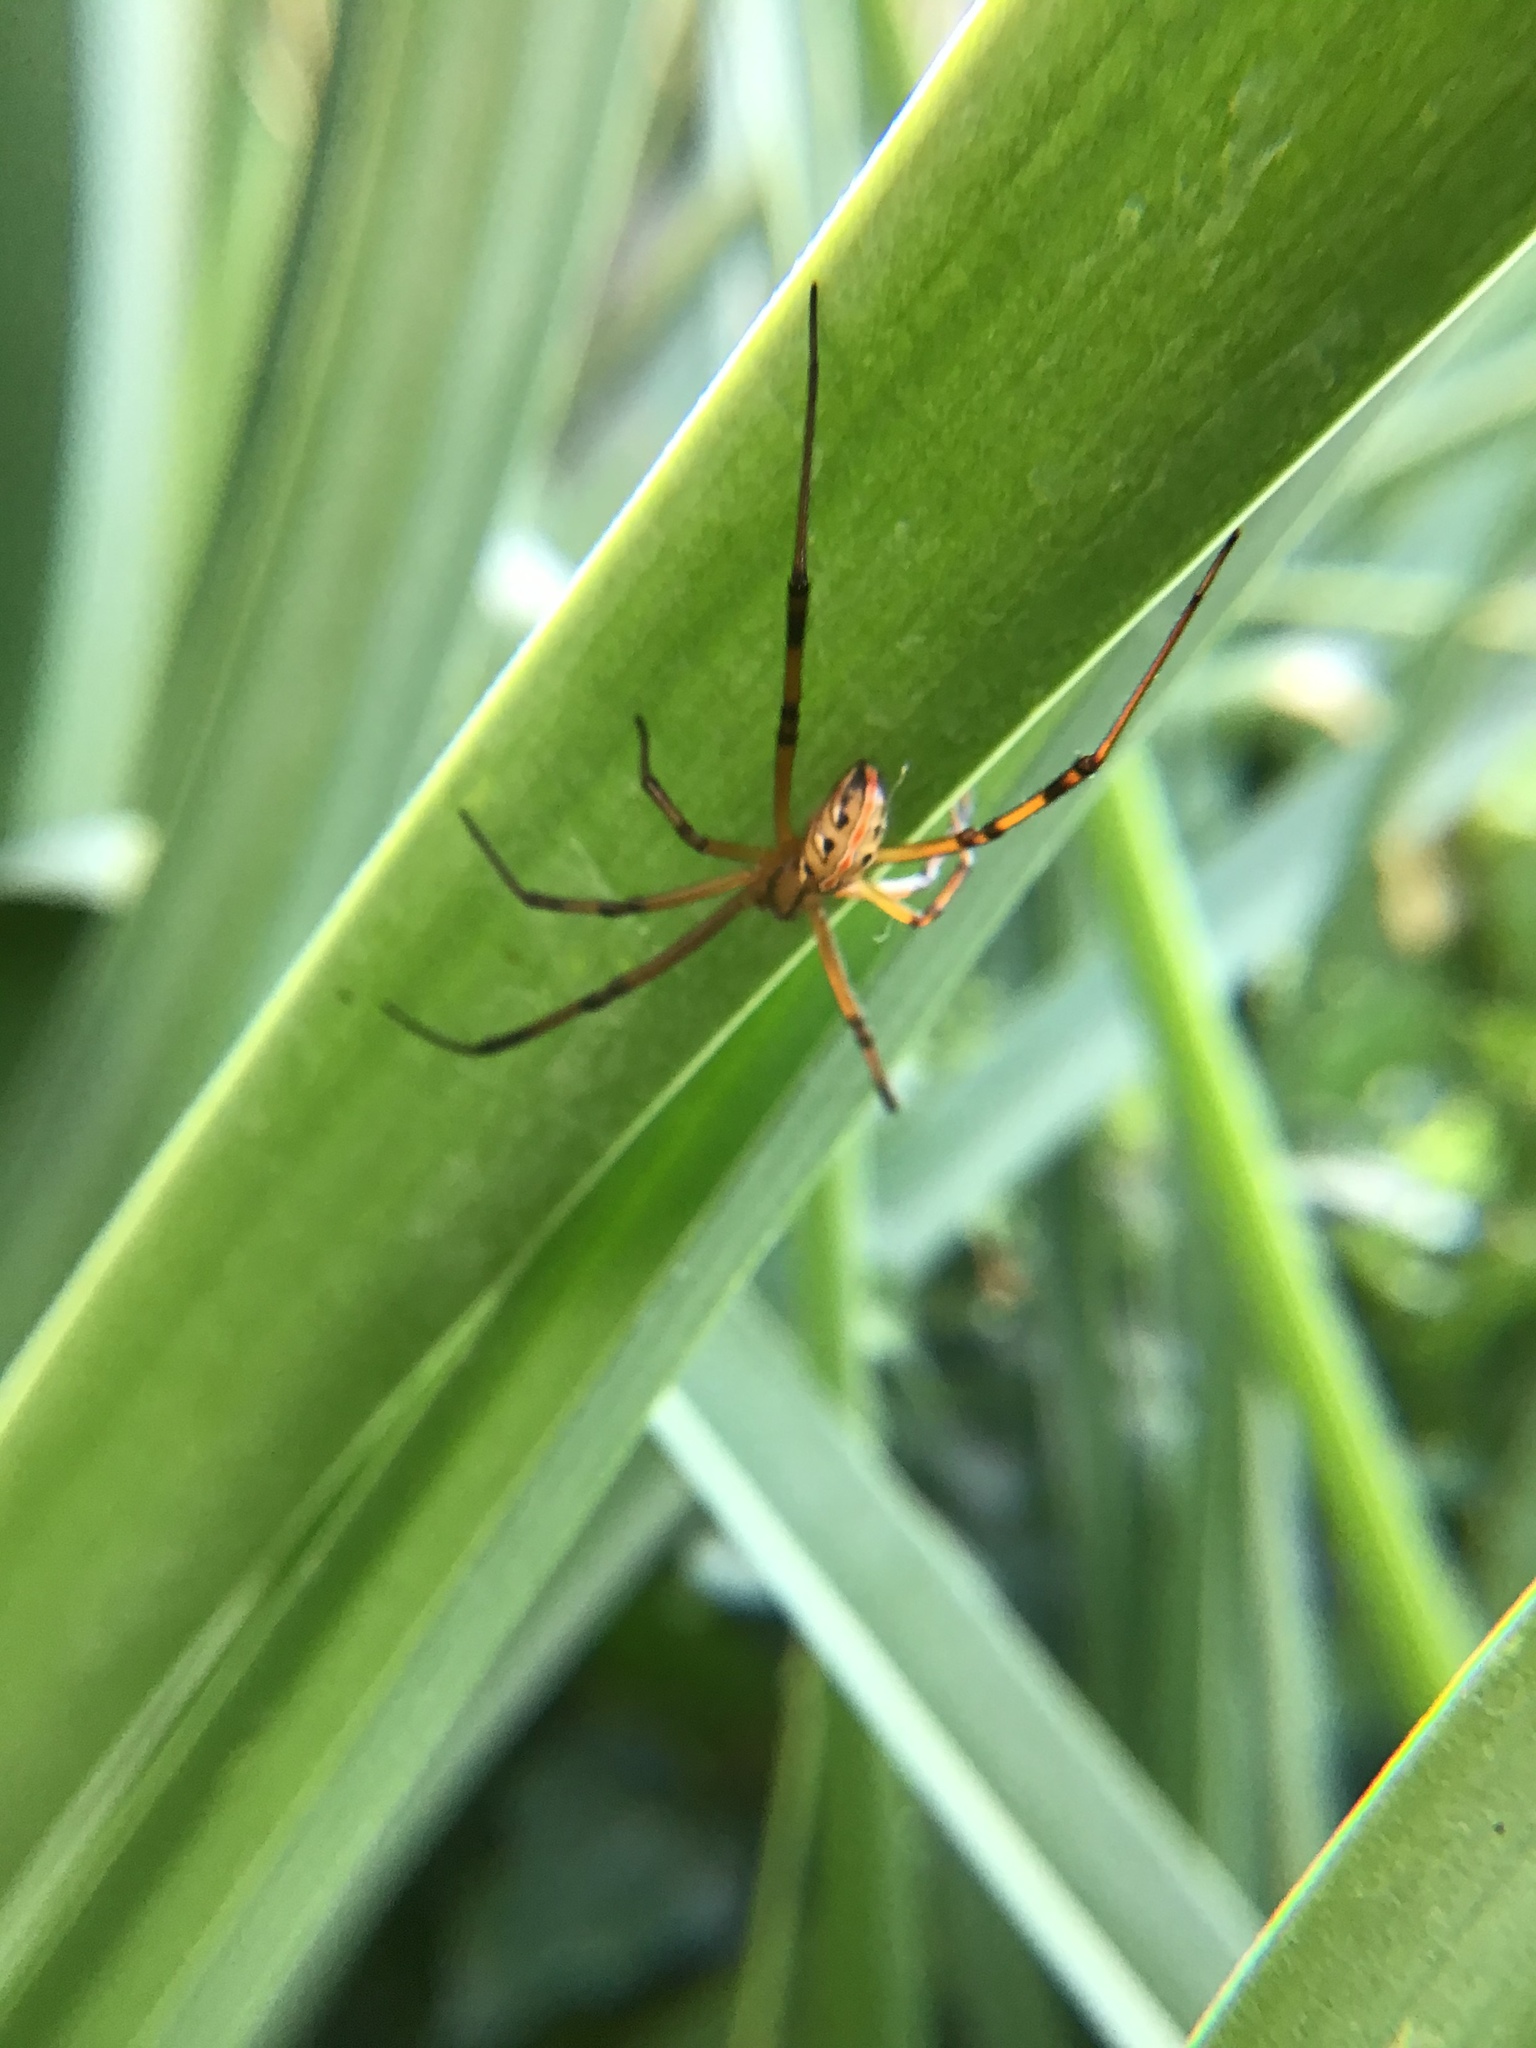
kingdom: Animalia
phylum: Arthropoda
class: Arachnida
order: Araneae
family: Theridiidae
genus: Latrodectus
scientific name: Latrodectus hesperus
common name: Western black widow
